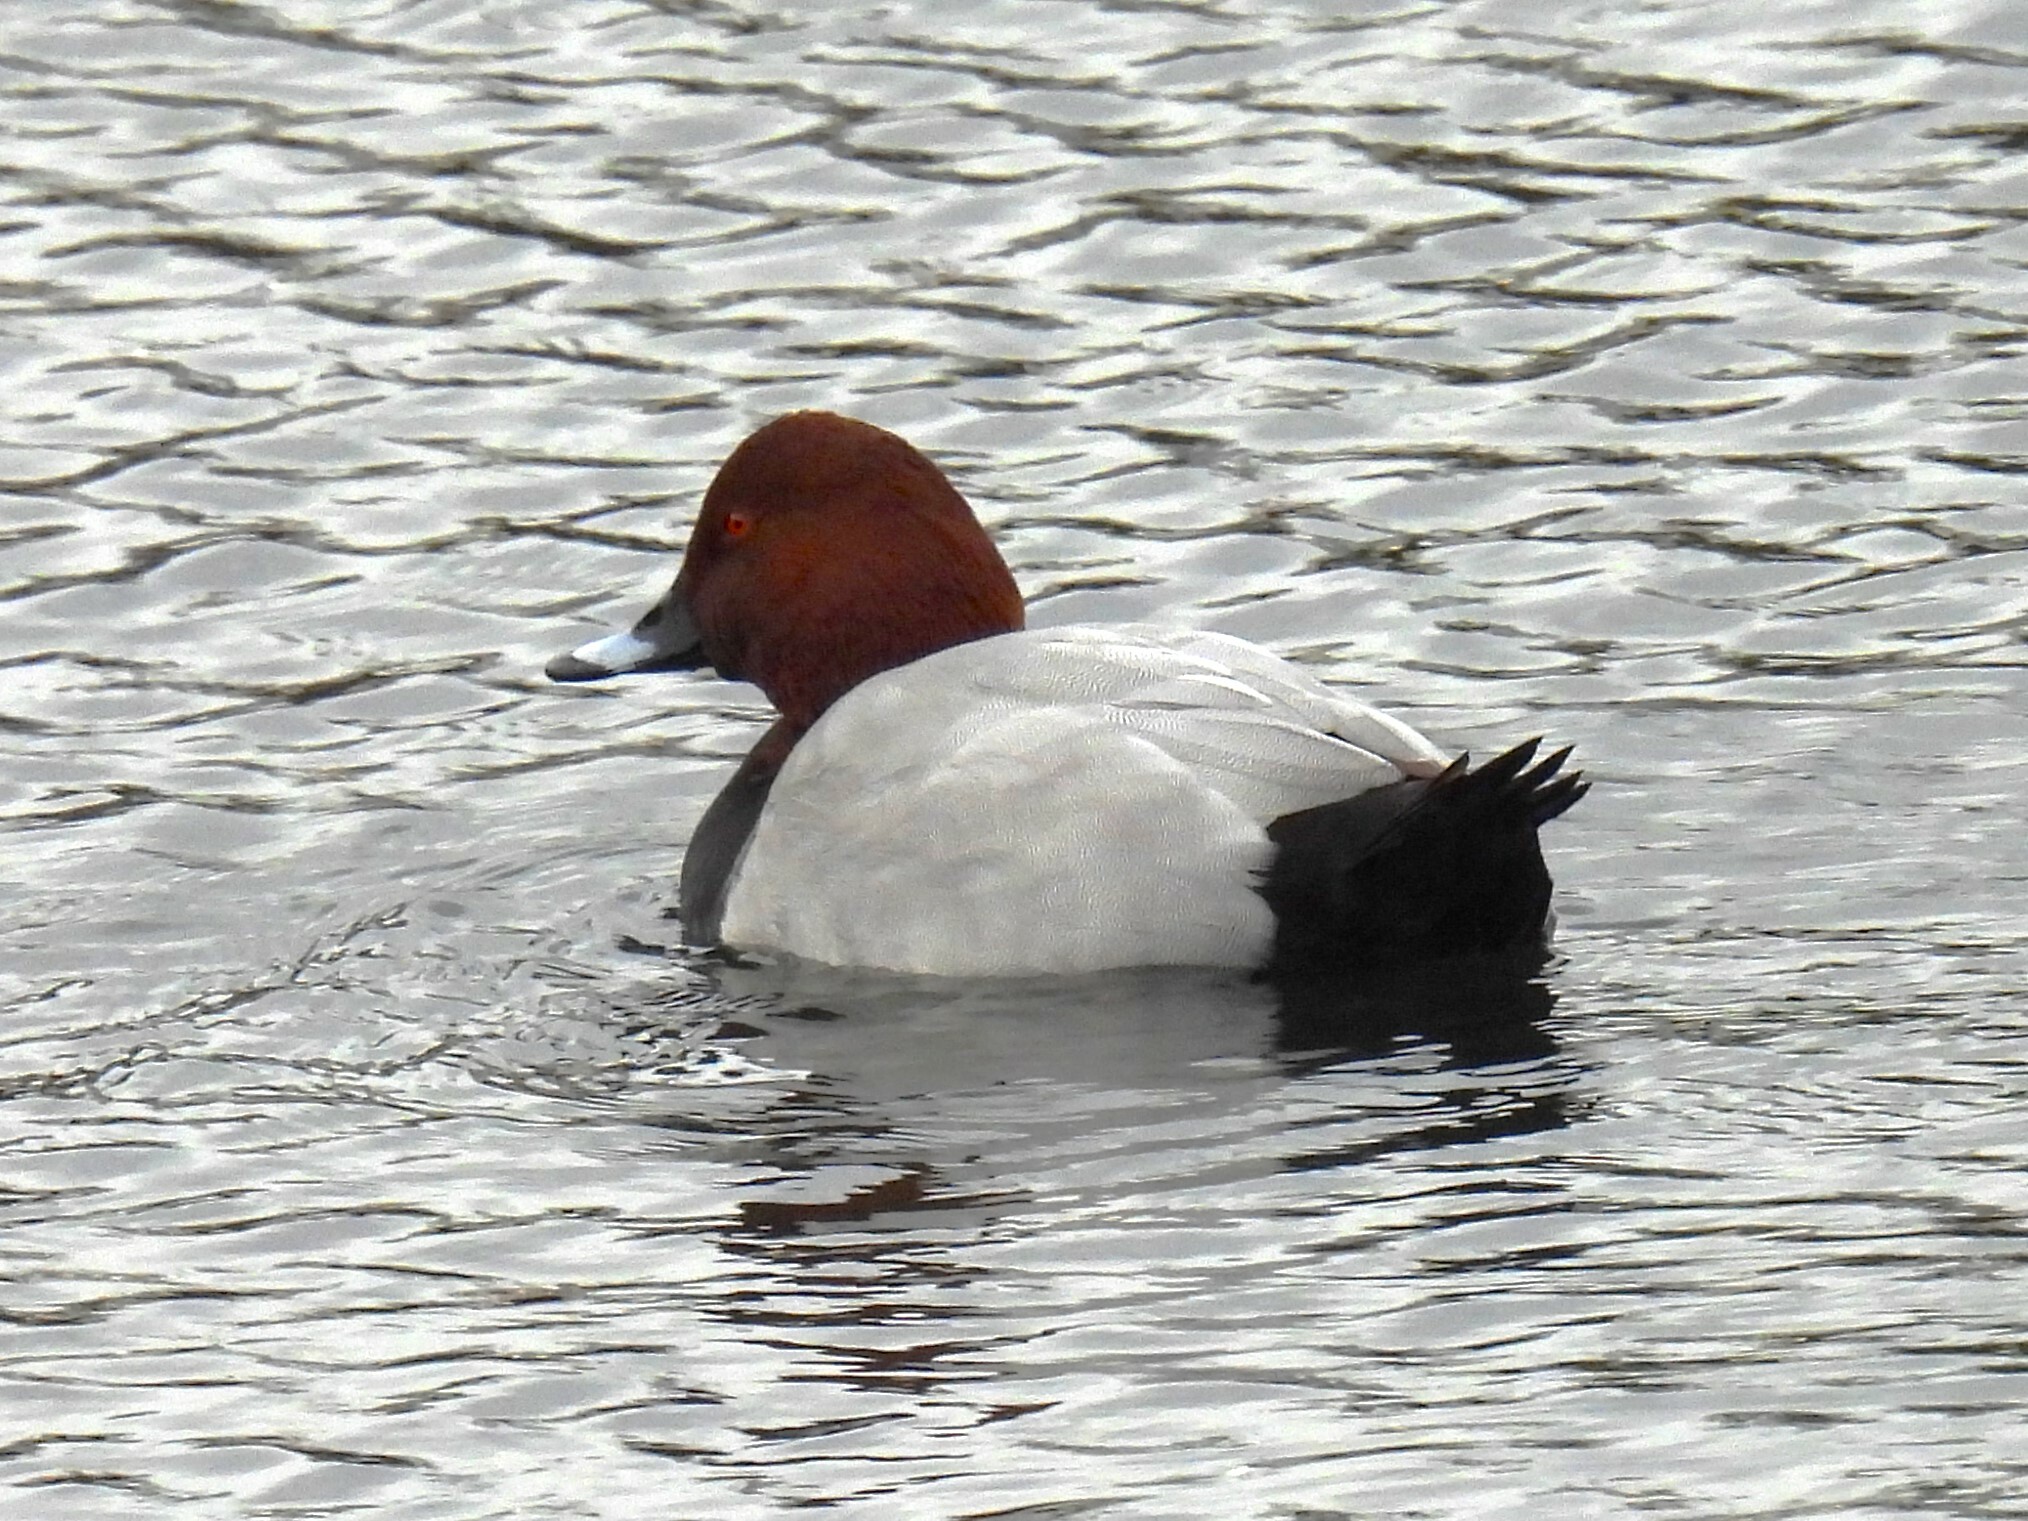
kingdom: Animalia
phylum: Chordata
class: Aves
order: Anseriformes
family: Anatidae
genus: Aythya
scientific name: Aythya ferina
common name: Common pochard
